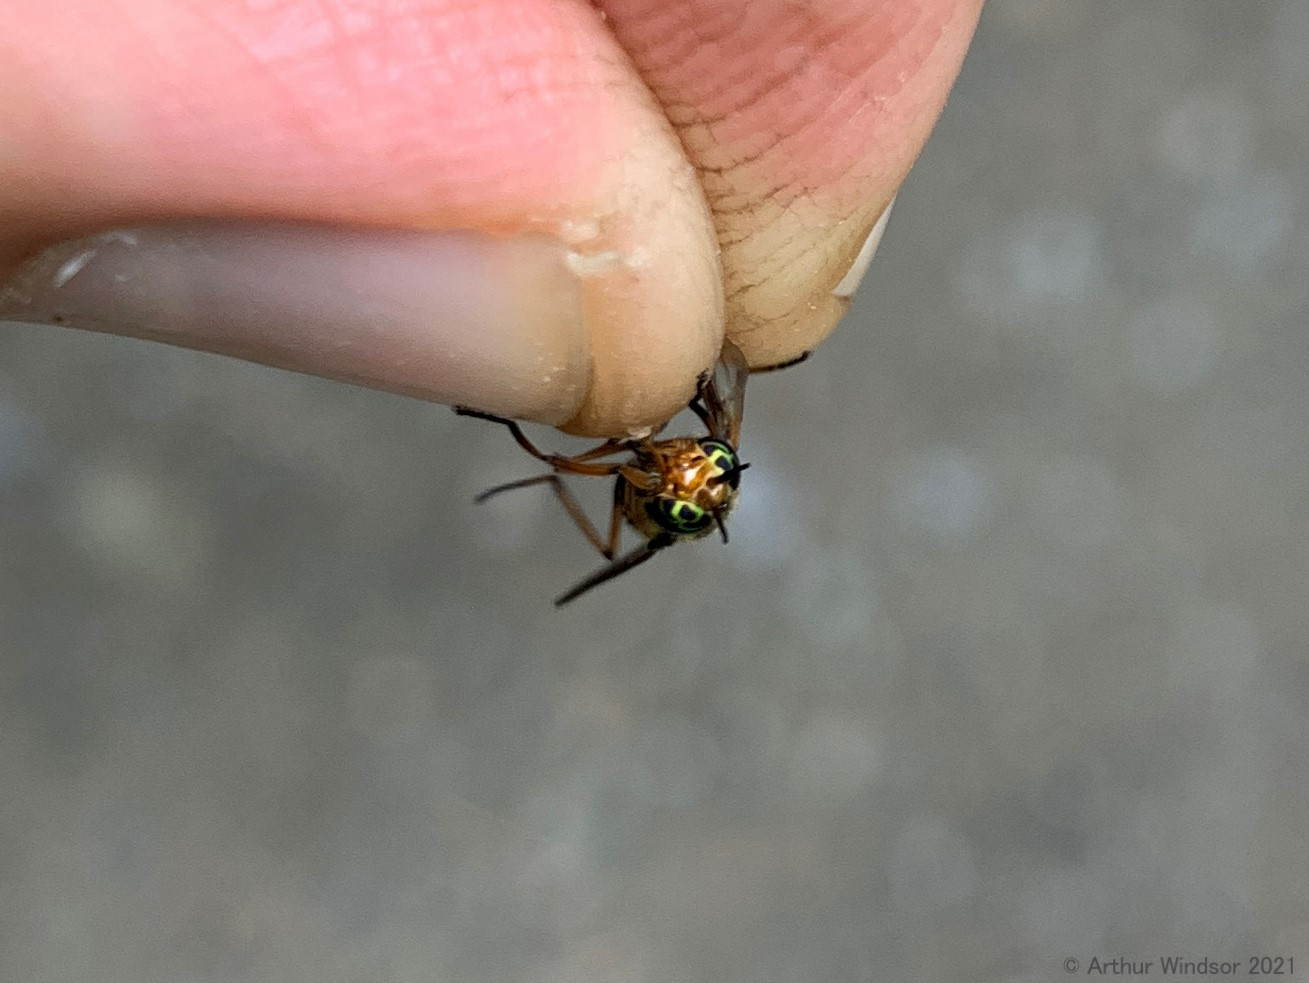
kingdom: Animalia
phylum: Arthropoda
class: Insecta
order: Diptera
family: Tabanidae
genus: Chrysops
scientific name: Chrysops shermani
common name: Sherman's deer fly
